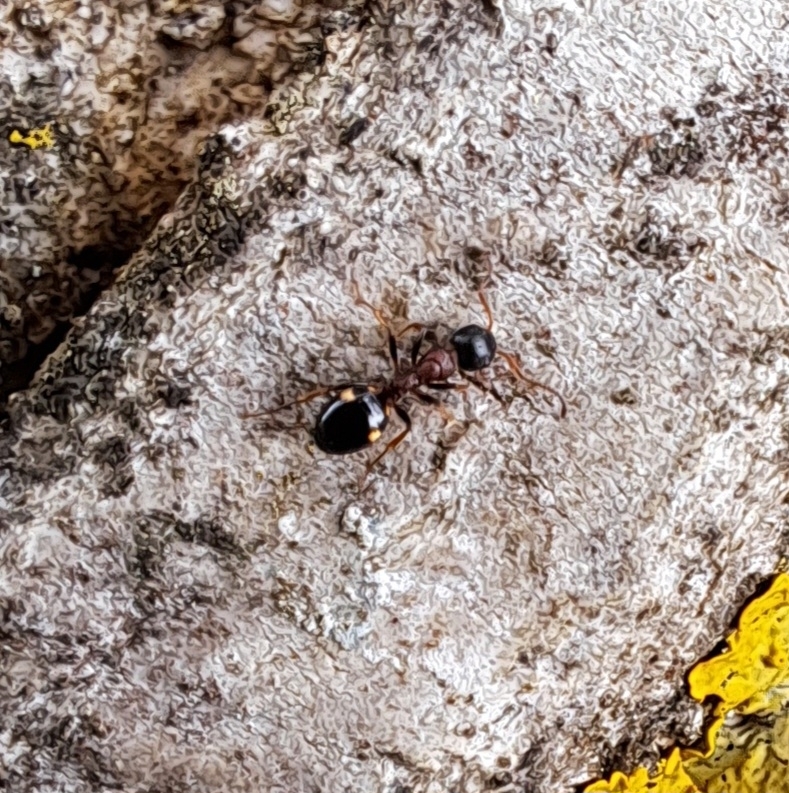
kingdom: Animalia
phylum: Arthropoda
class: Insecta
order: Hymenoptera
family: Formicidae
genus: Dolichoderus
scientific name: Dolichoderus quadripunctatus
